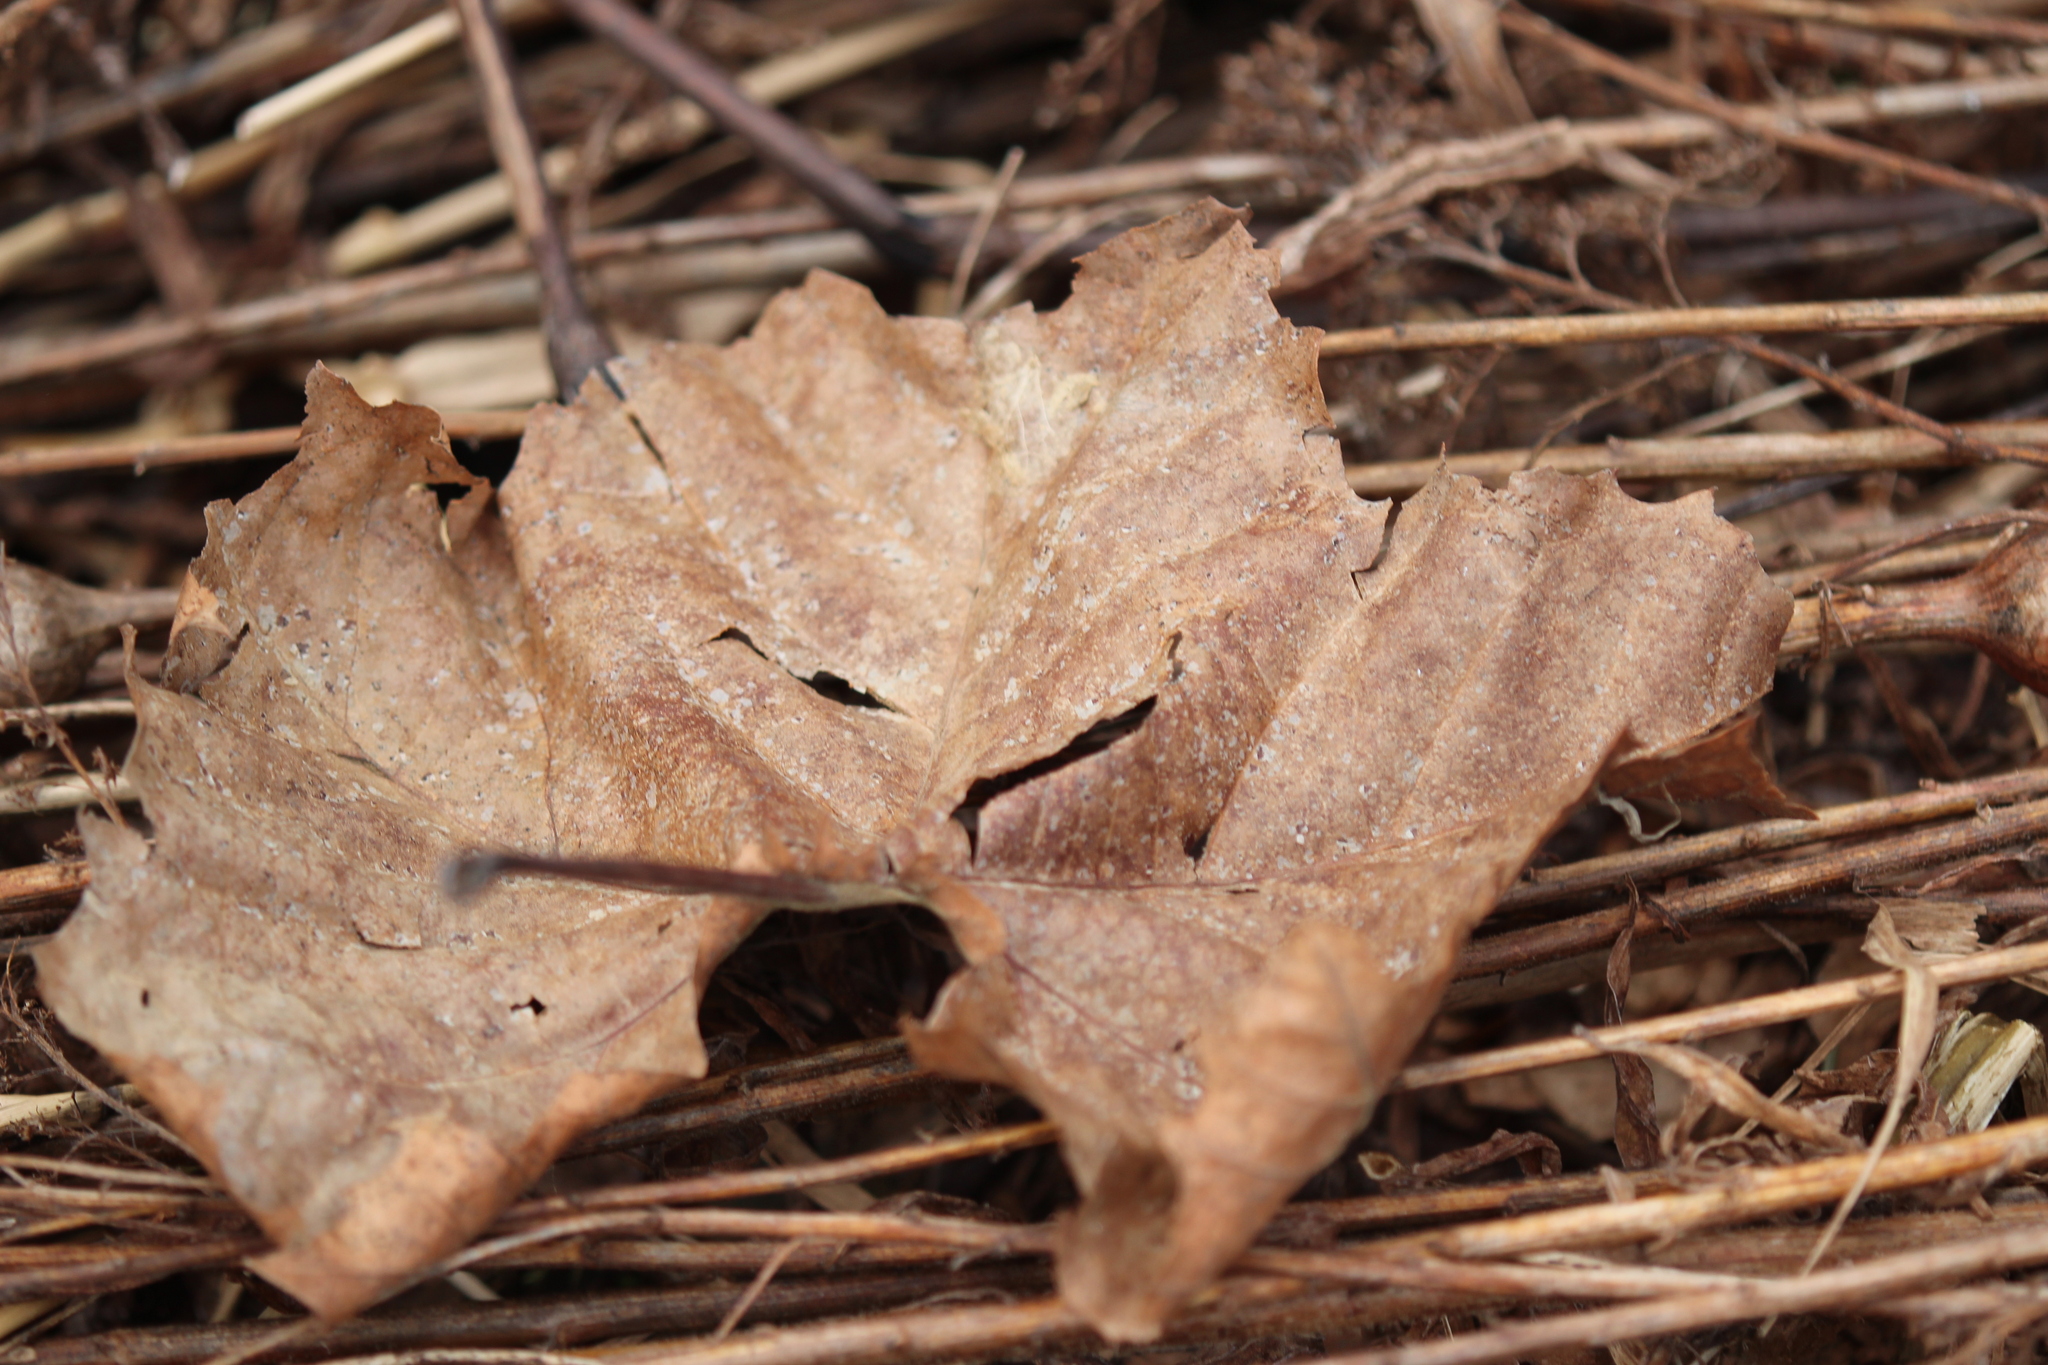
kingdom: Plantae
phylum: Tracheophyta
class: Magnoliopsida
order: Proteales
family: Platanaceae
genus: Platanus
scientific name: Platanus occidentalis
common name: American sycamore
